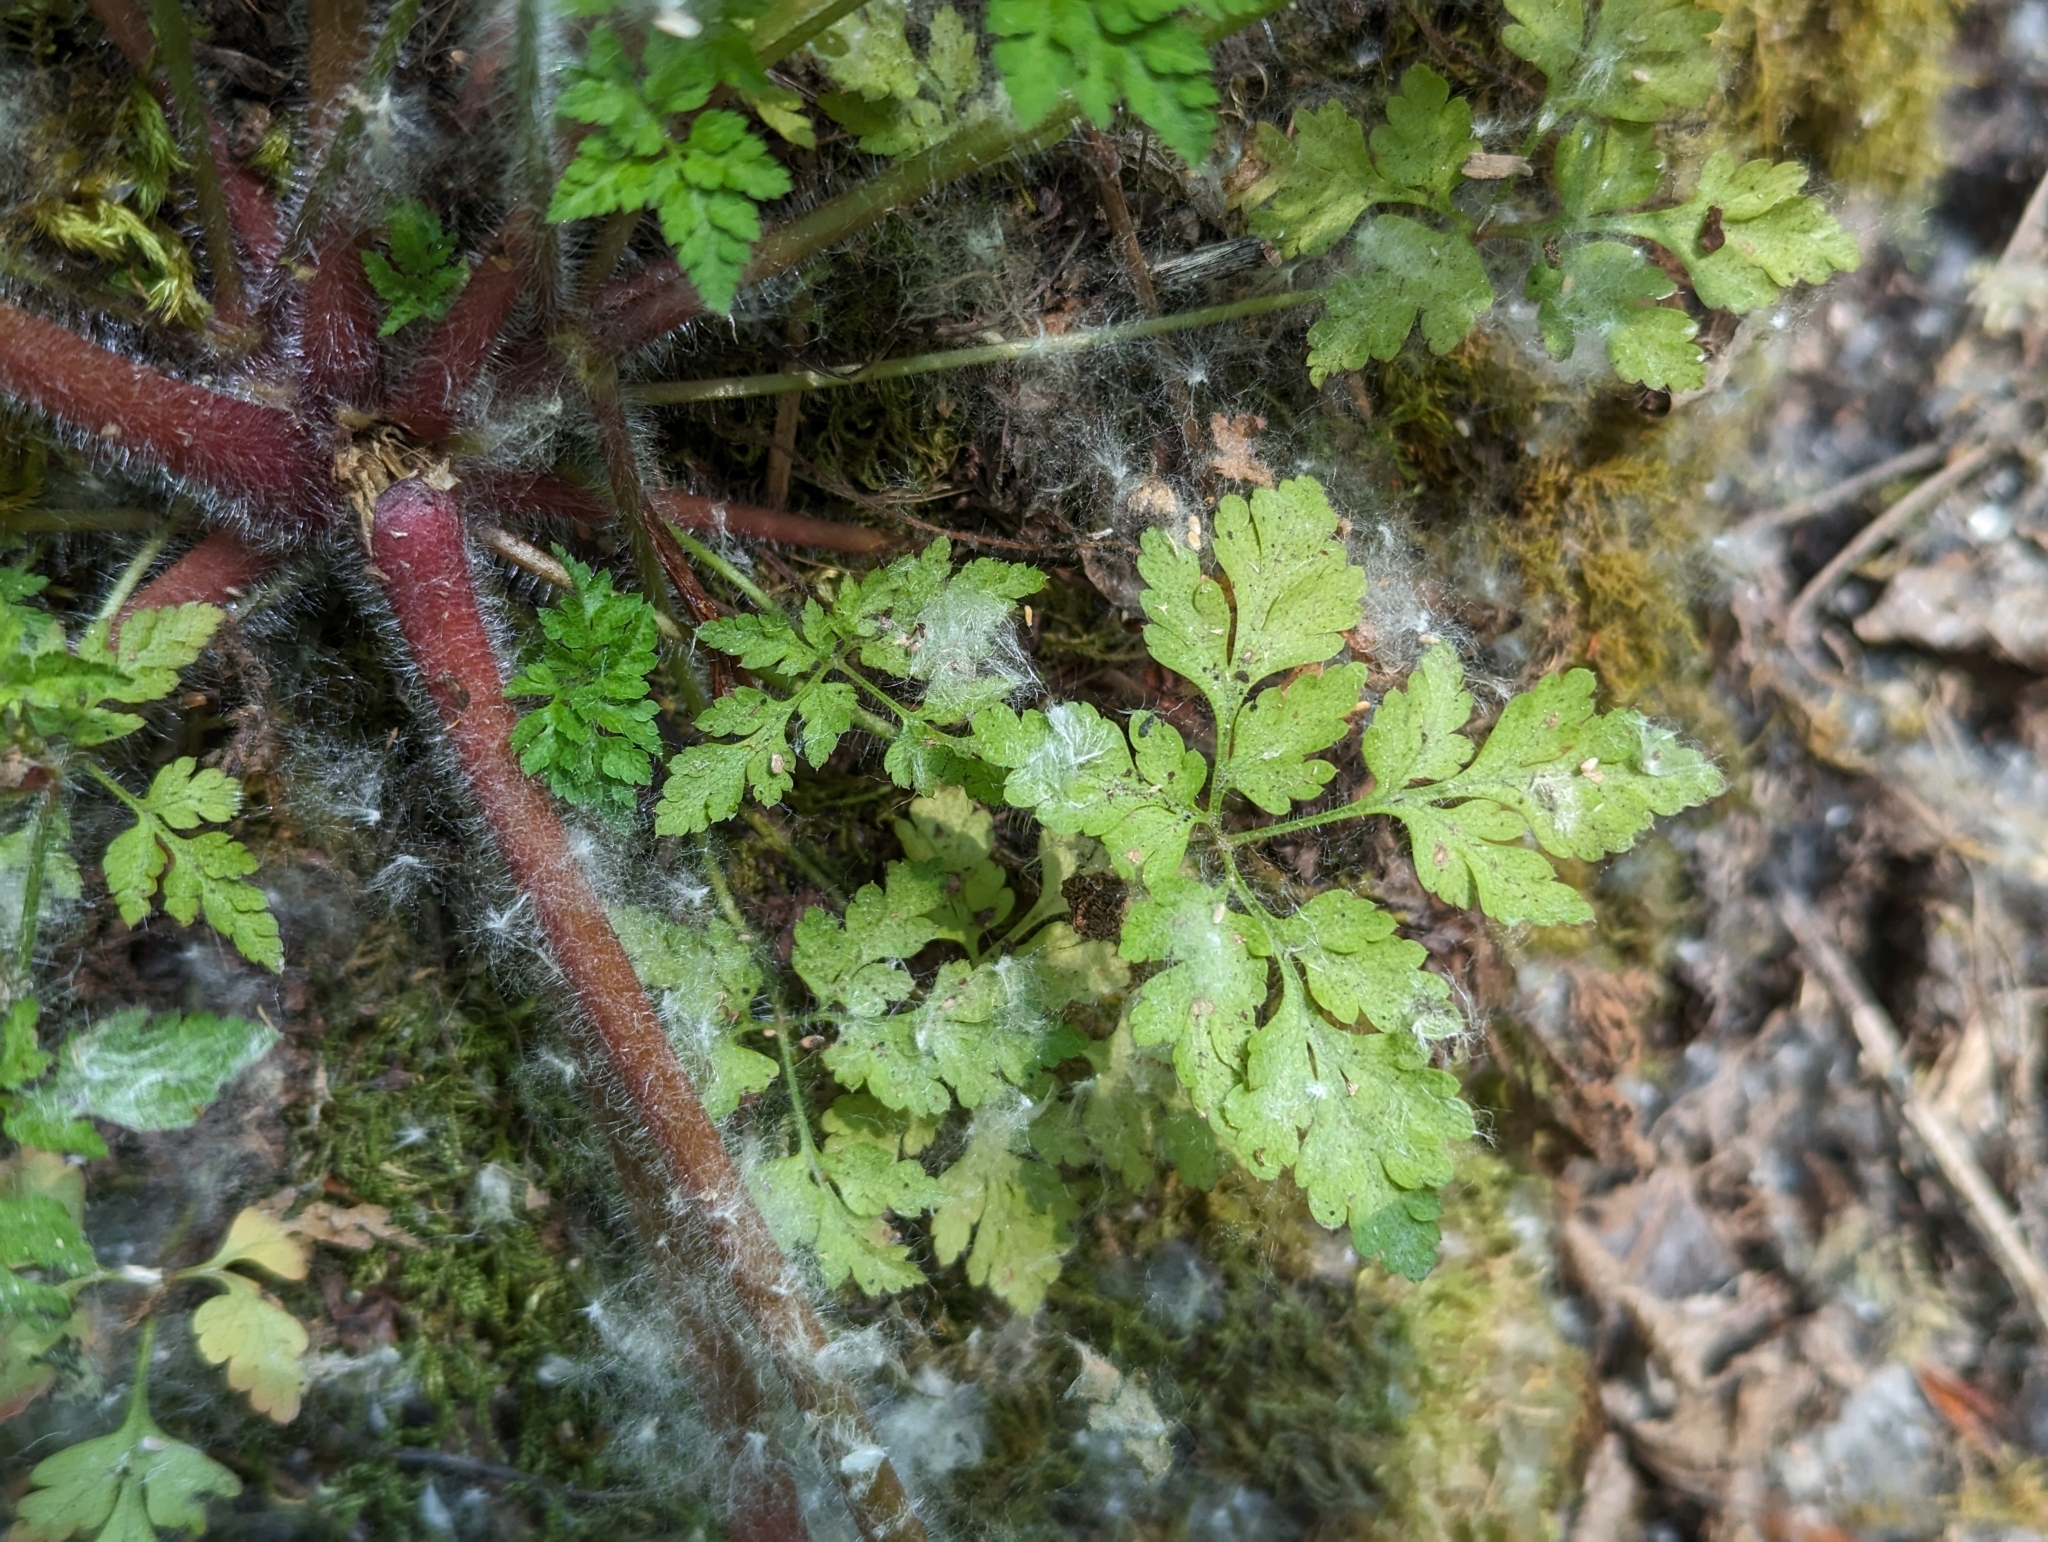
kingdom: Plantae
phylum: Tracheophyta
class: Magnoliopsida
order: Geraniales
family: Geraniaceae
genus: Geranium
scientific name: Geranium robertianum
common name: Herb-robert
